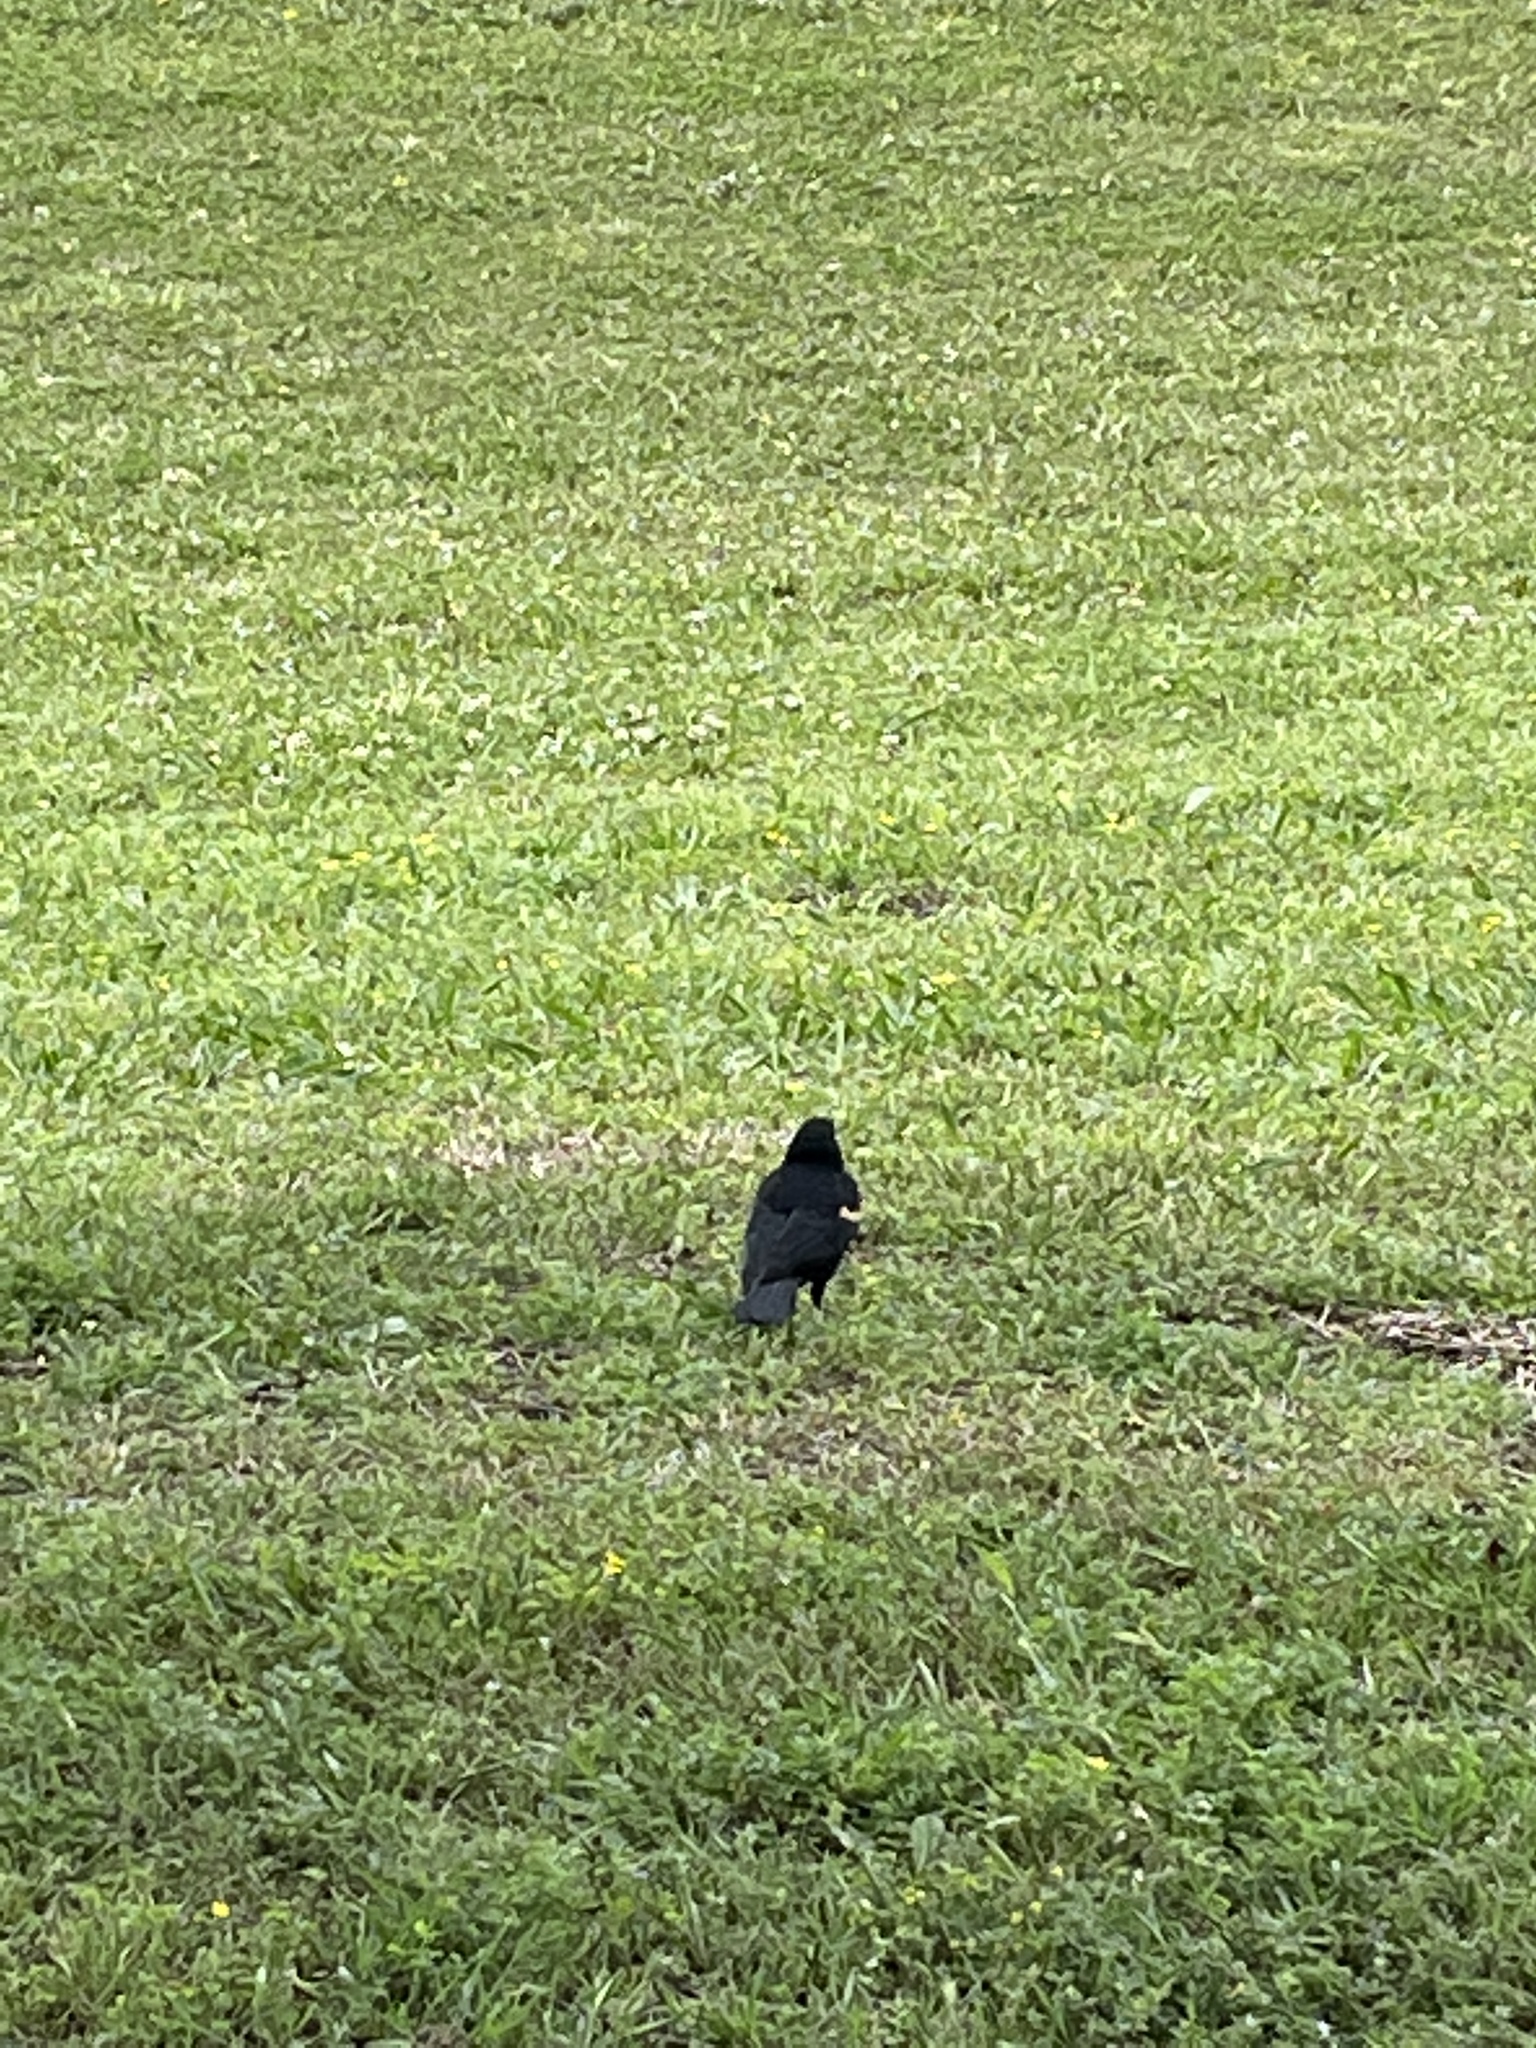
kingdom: Animalia
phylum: Chordata
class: Aves
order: Passeriformes
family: Icteridae
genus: Agelaius
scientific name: Agelaius phoeniceus
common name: Red-winged blackbird
